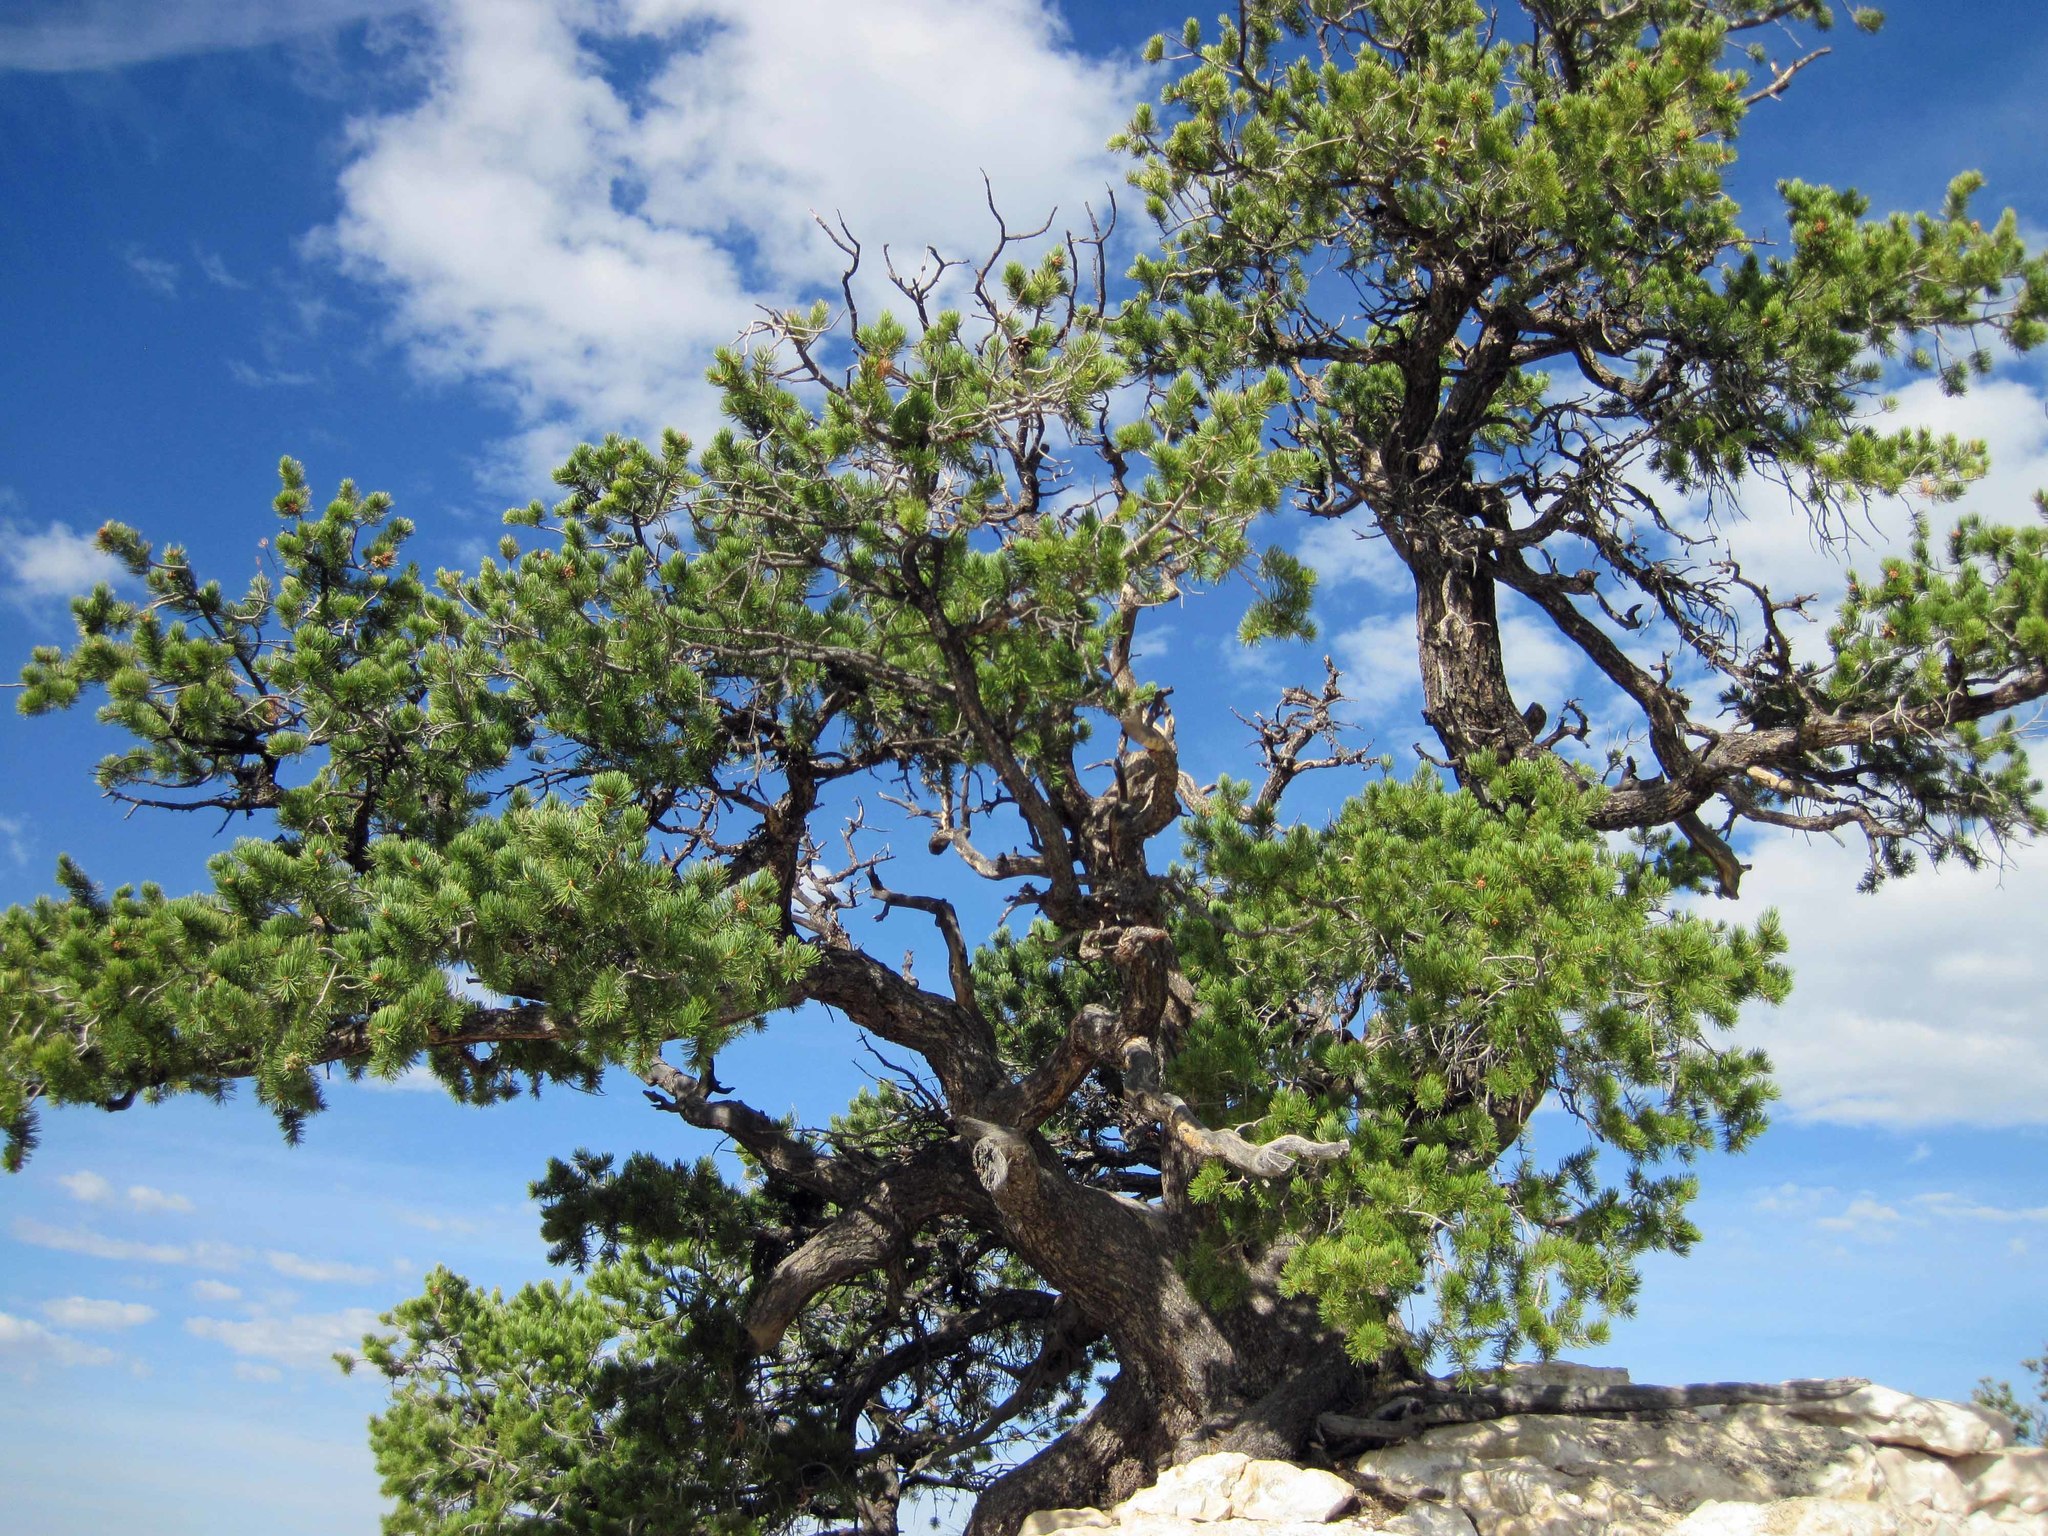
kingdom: Plantae
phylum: Tracheophyta
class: Pinopsida
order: Pinales
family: Pinaceae
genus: Pinus
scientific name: Pinus edulis
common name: Colorado pinyon
